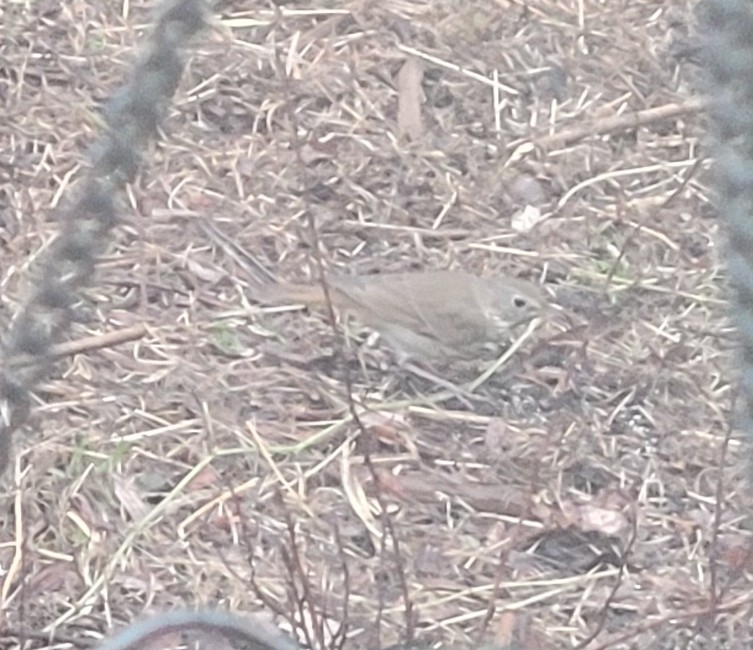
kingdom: Animalia
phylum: Chordata
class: Aves
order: Passeriformes
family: Turdidae
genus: Catharus
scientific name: Catharus guttatus
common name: Hermit thrush
